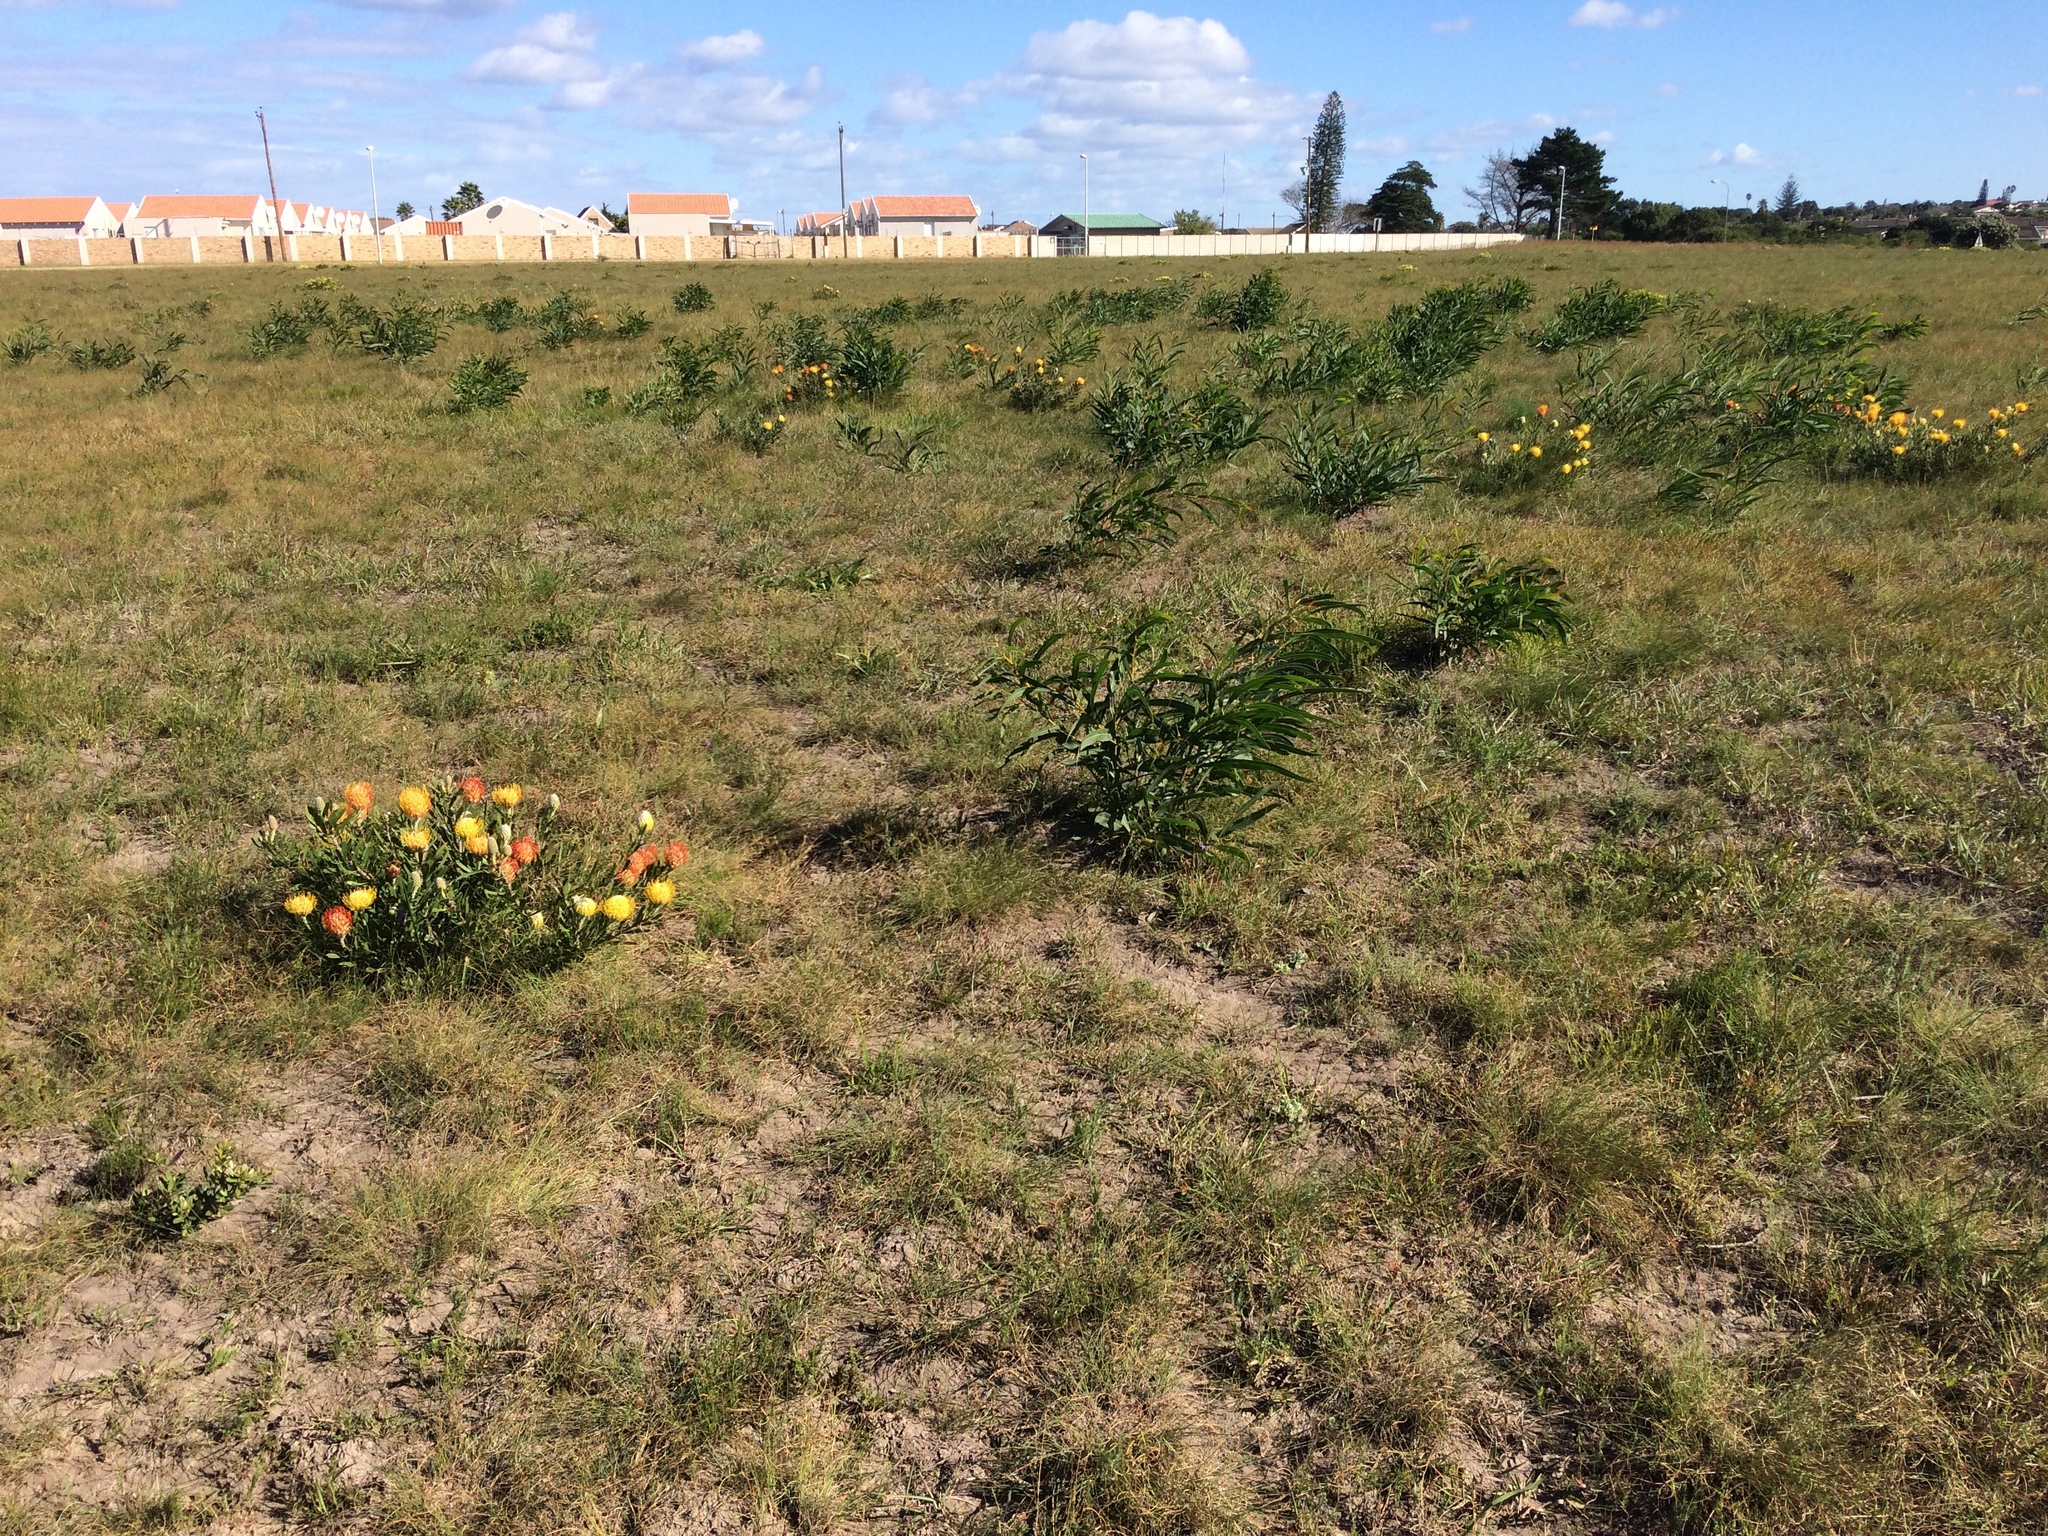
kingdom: Plantae
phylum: Tracheophyta
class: Magnoliopsida
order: Proteales
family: Proteaceae
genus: Leucospermum
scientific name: Leucospermum cuneiforme
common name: Common pincushion
